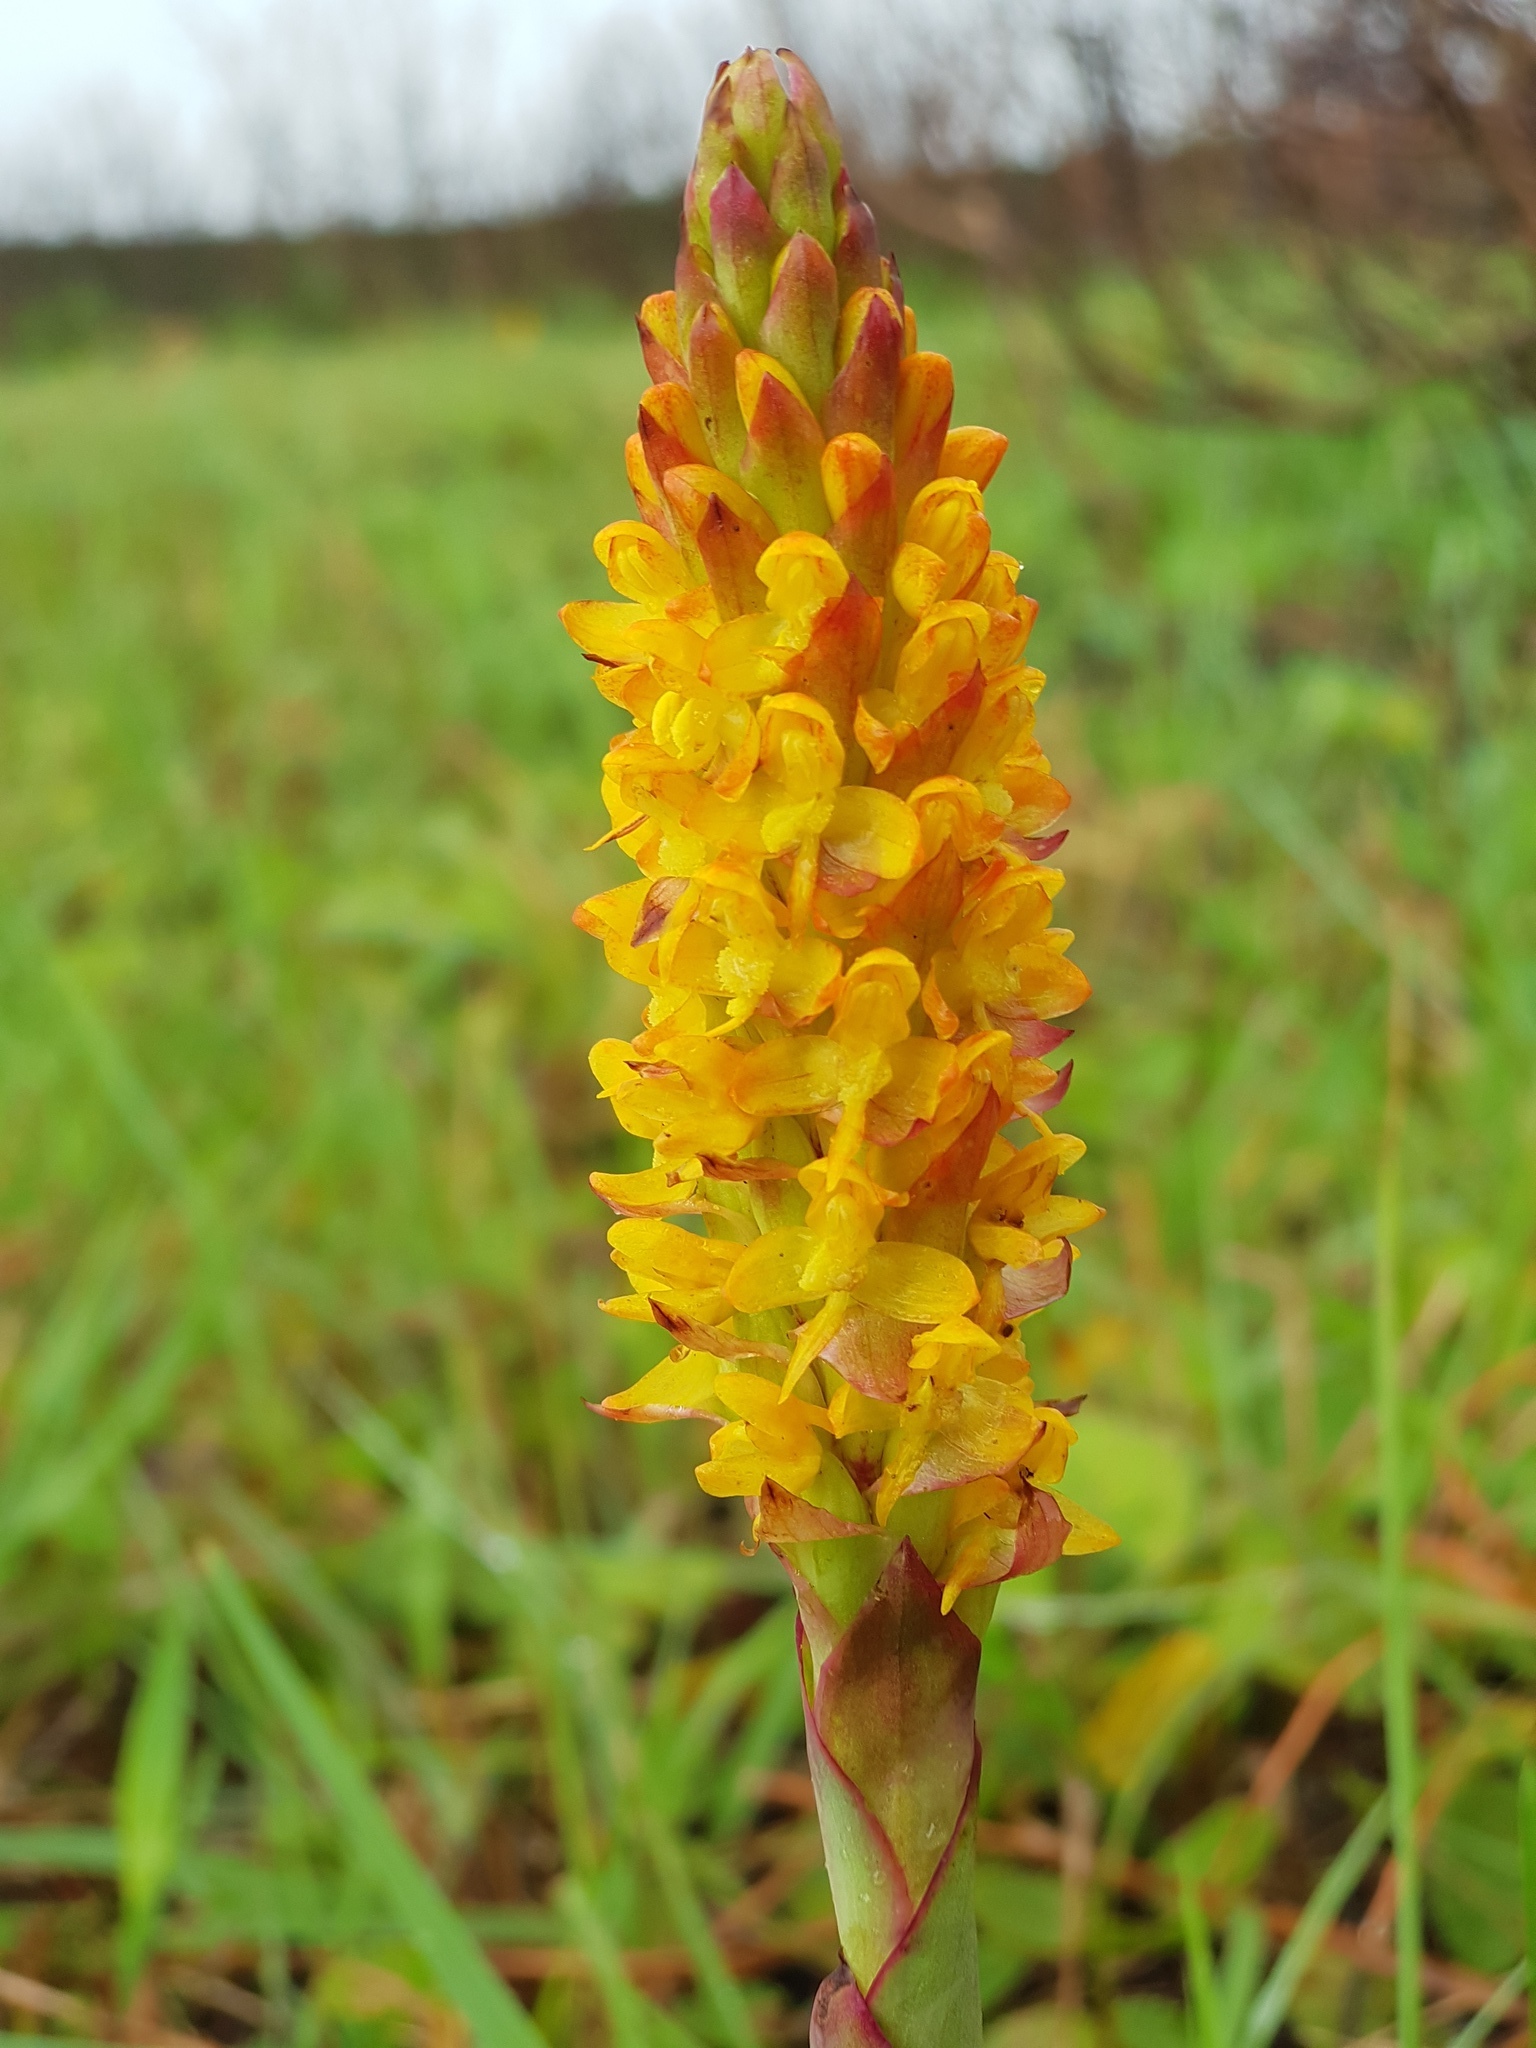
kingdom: Plantae
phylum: Tracheophyta
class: Liliopsida
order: Asparagales
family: Orchidaceae
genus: Disa
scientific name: Disa woodii
